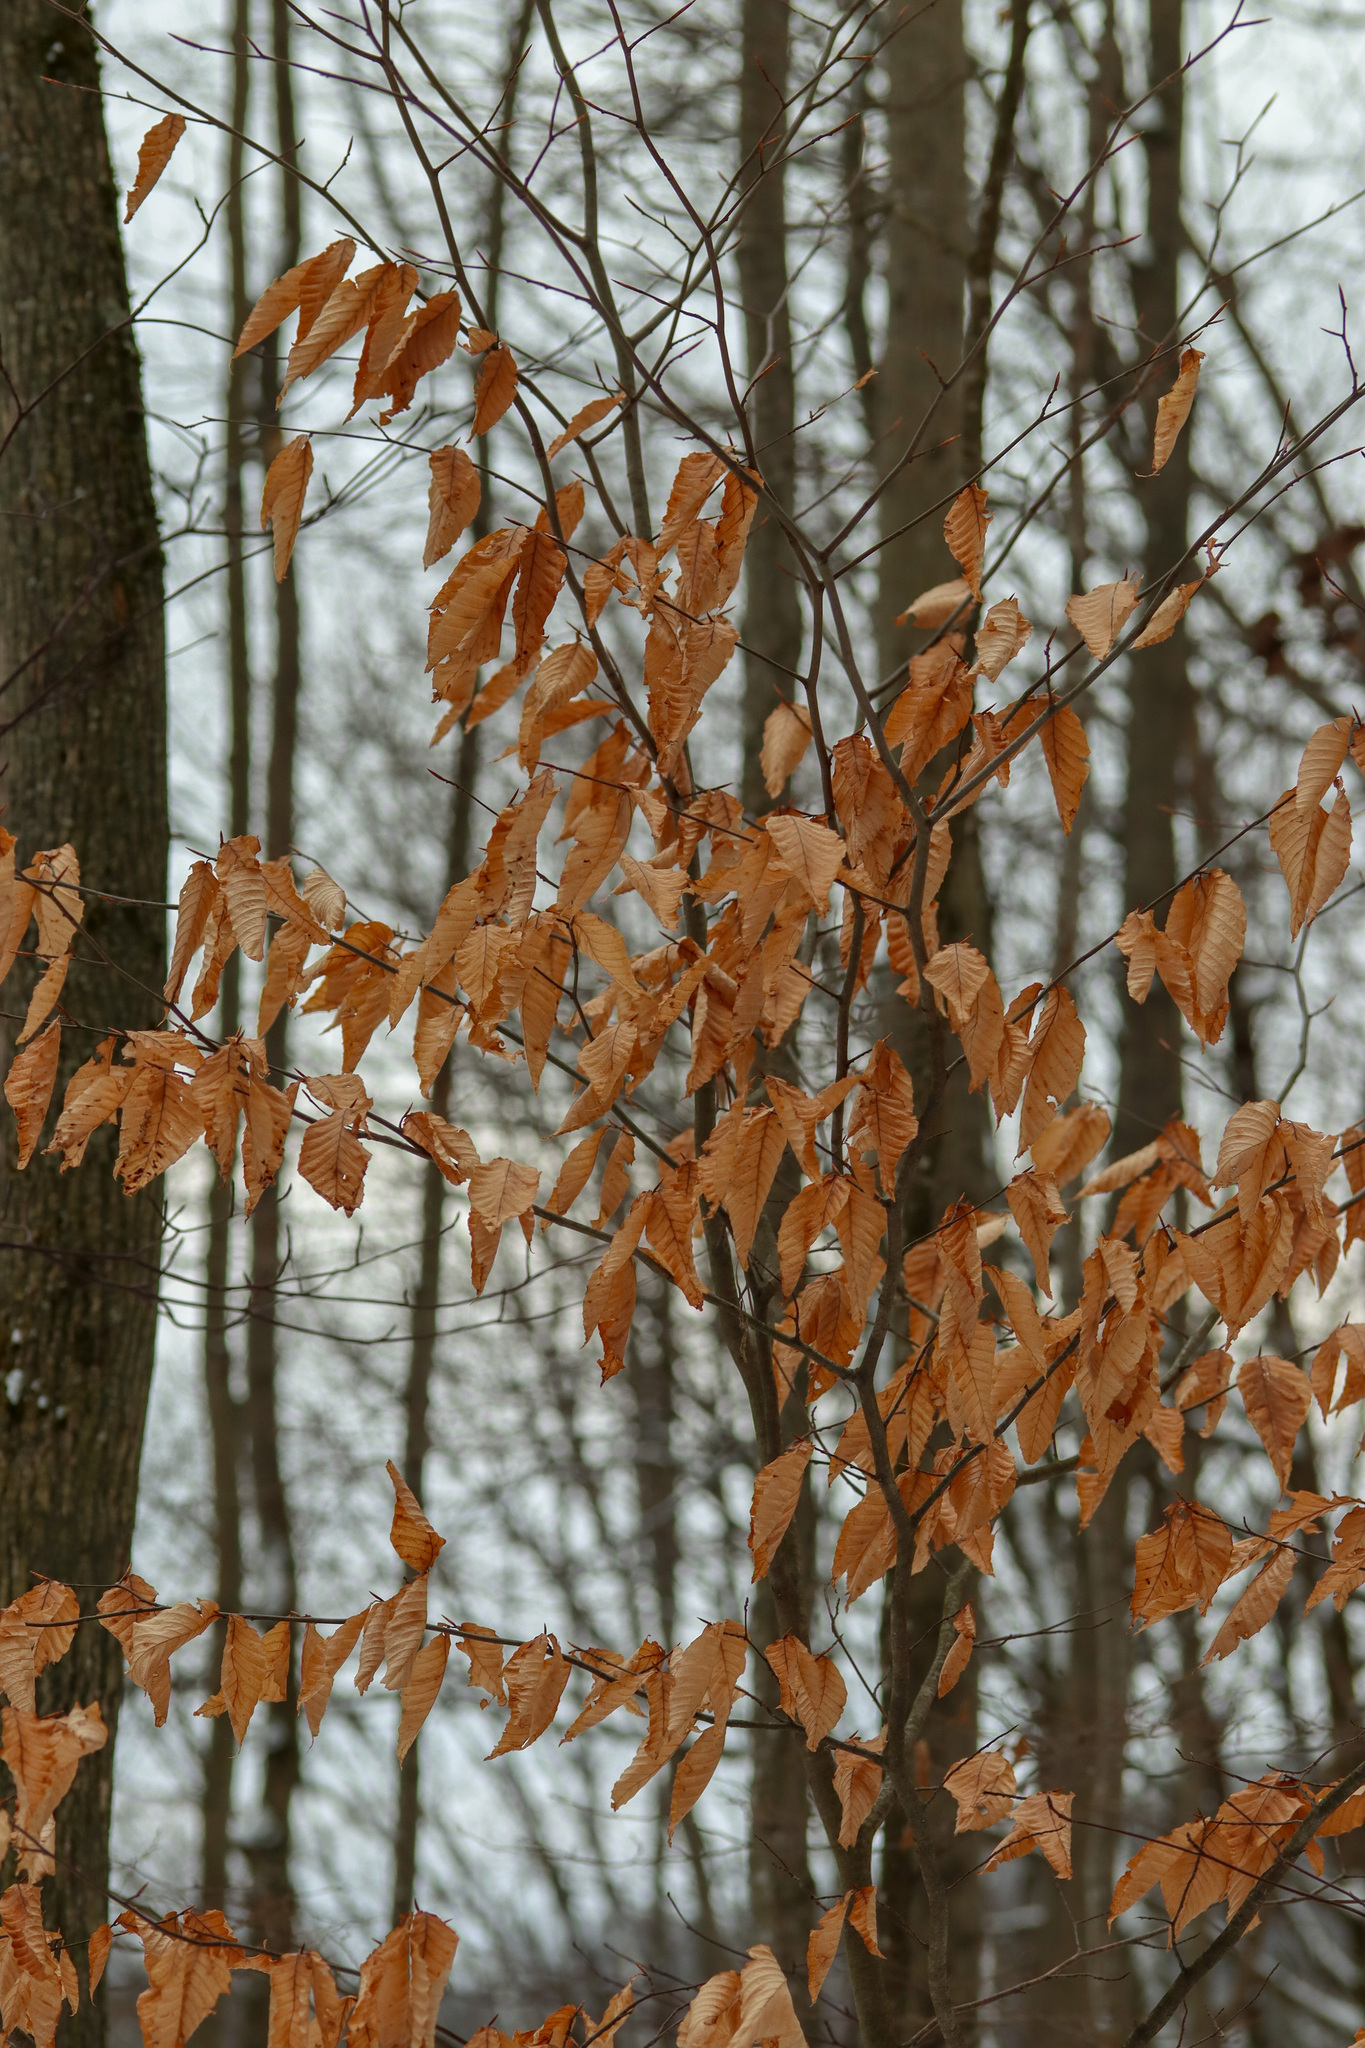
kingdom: Plantae
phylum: Tracheophyta
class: Magnoliopsida
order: Fagales
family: Fagaceae
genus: Fagus
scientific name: Fagus grandifolia
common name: American beech
